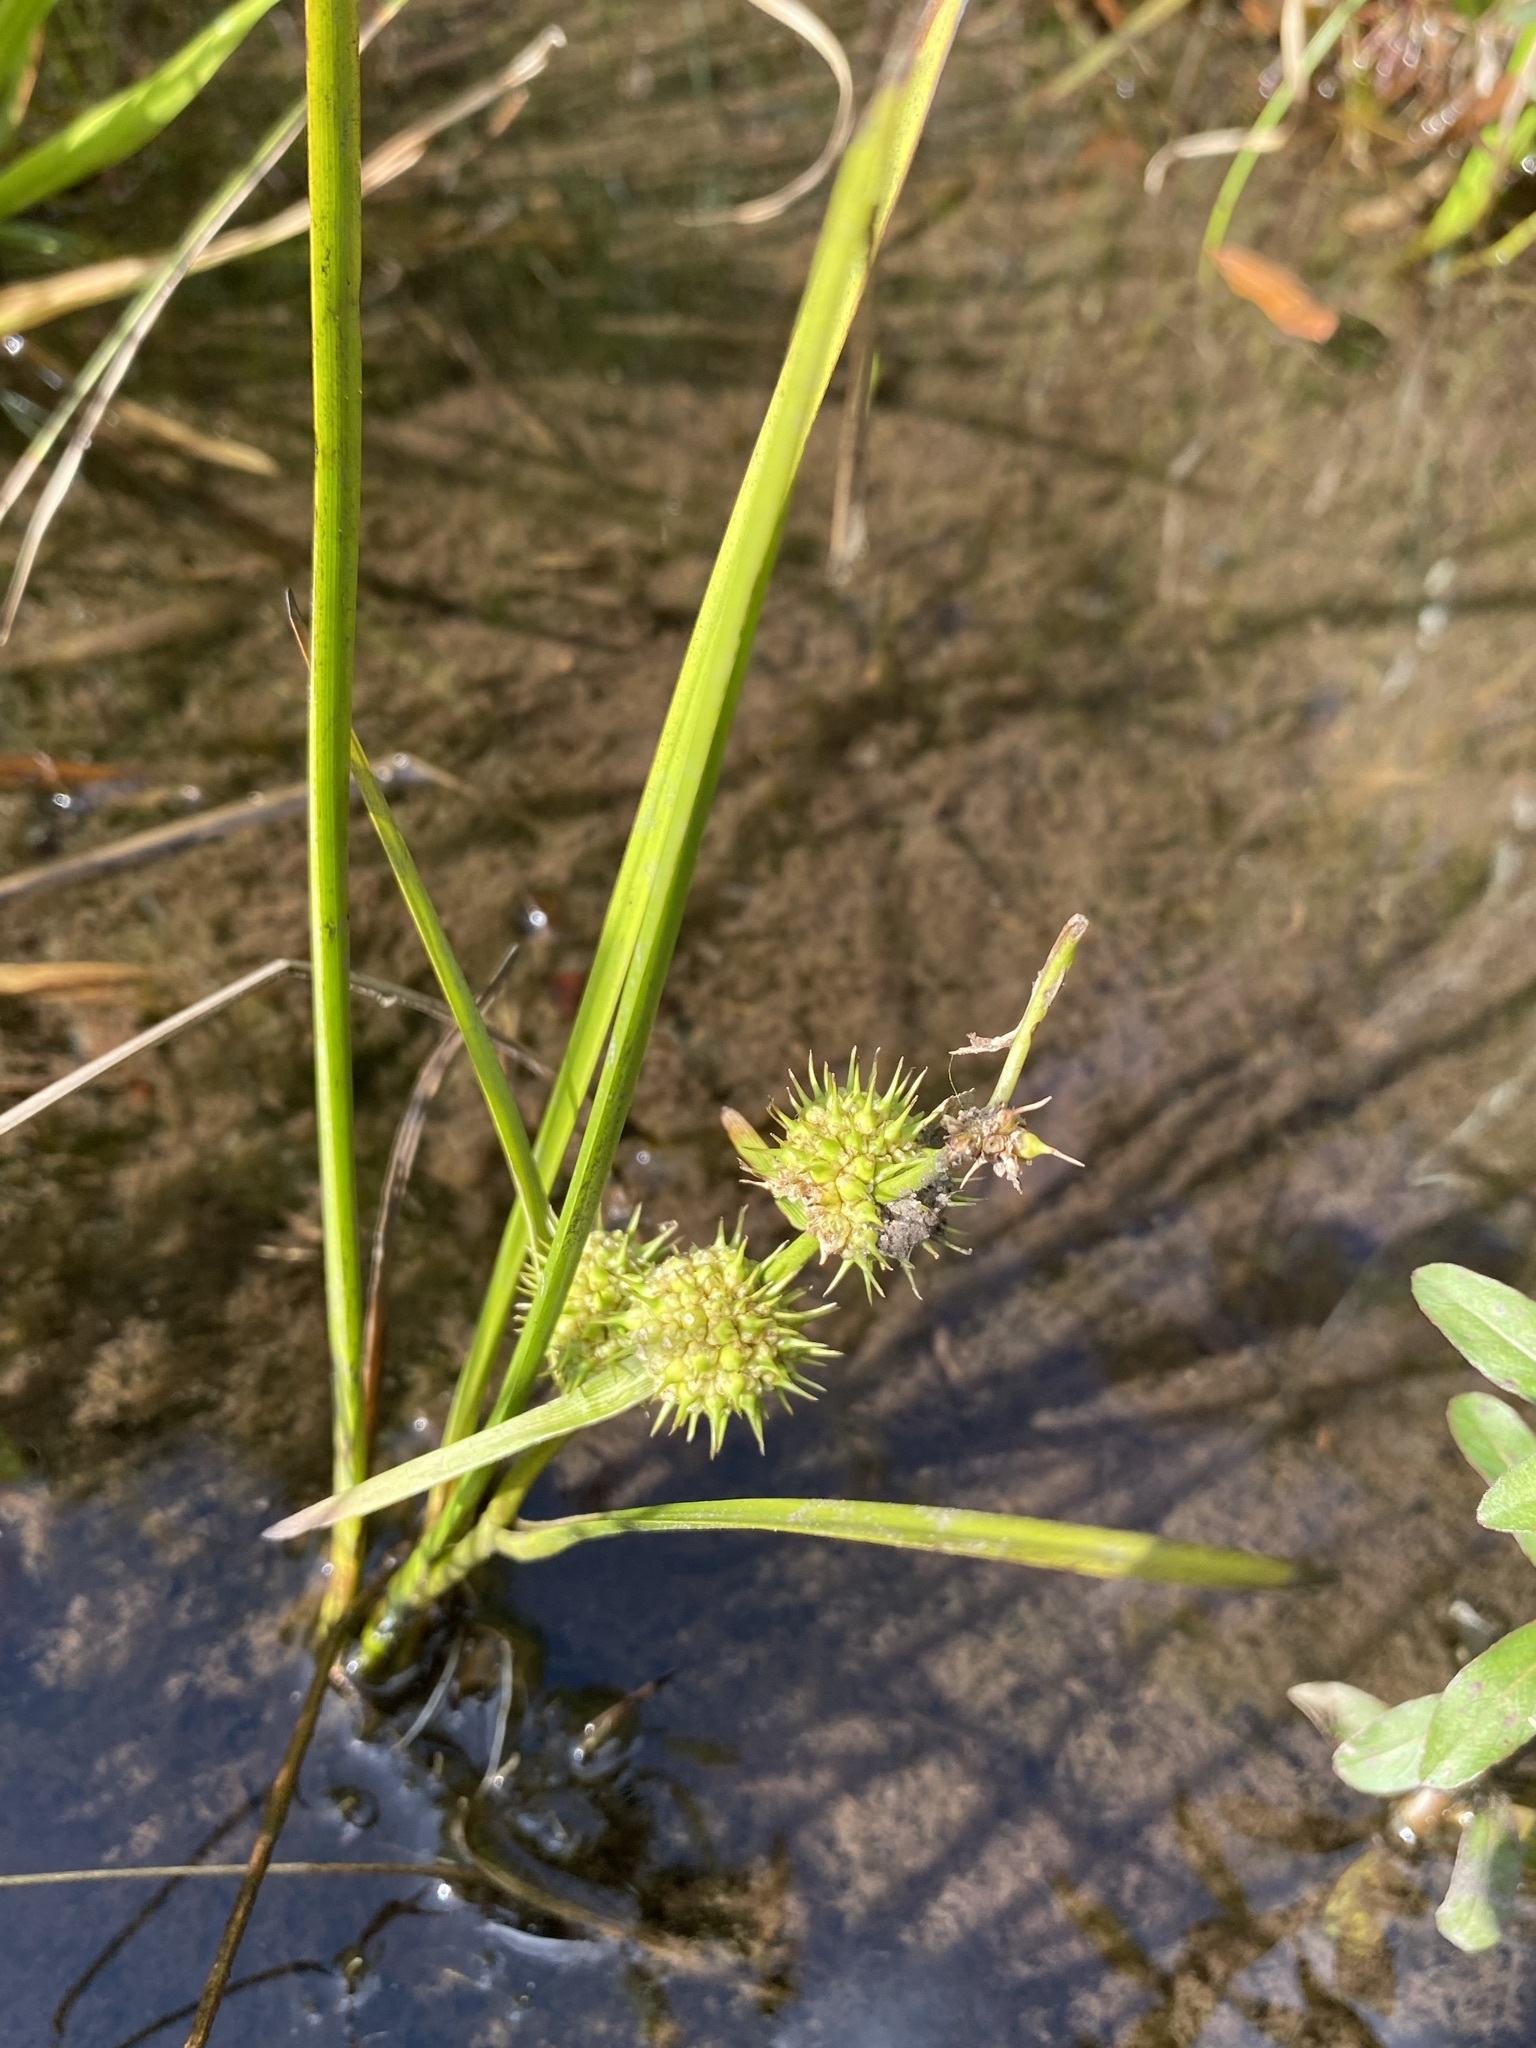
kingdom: Plantae
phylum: Tracheophyta
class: Liliopsida
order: Poales
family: Typhaceae
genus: Sparganium
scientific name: Sparganium americanum
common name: American burreed
